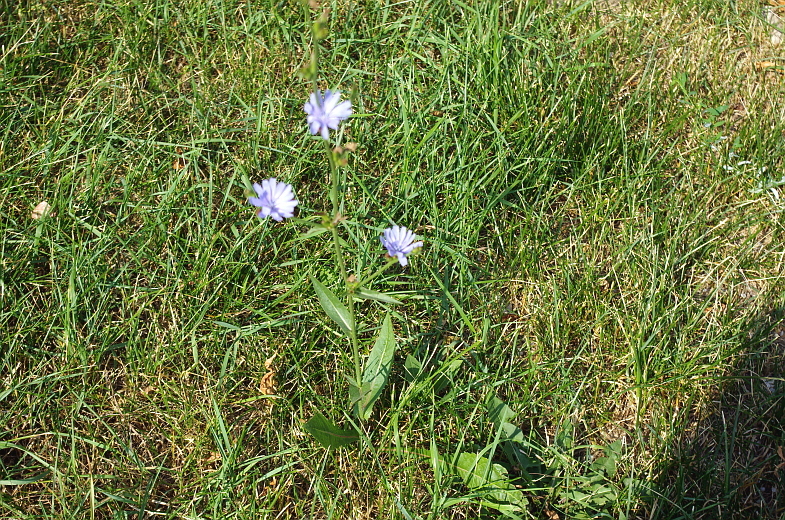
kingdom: Plantae
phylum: Tracheophyta
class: Magnoliopsida
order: Asterales
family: Asteraceae
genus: Cichorium
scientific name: Cichorium intybus
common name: Chicory
